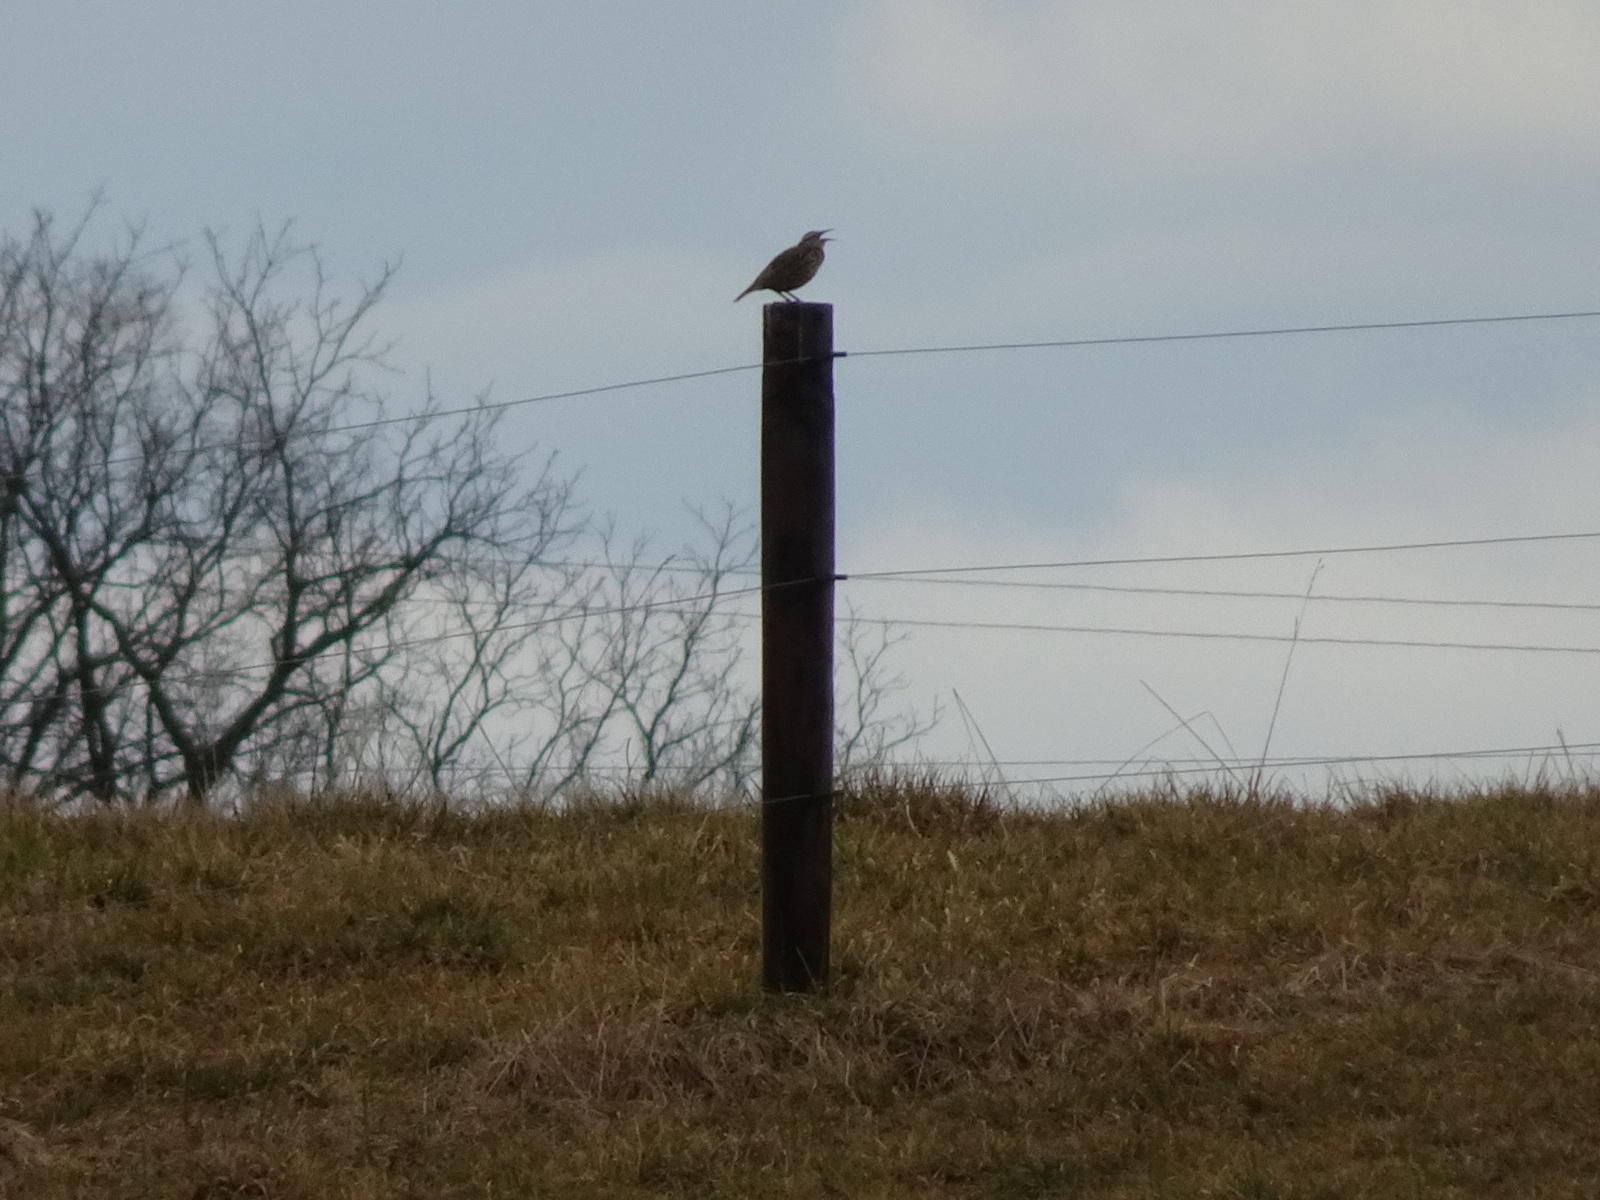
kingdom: Animalia
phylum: Chordata
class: Aves
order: Passeriformes
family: Icteridae
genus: Sturnella
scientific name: Sturnella magna
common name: Eastern meadowlark
